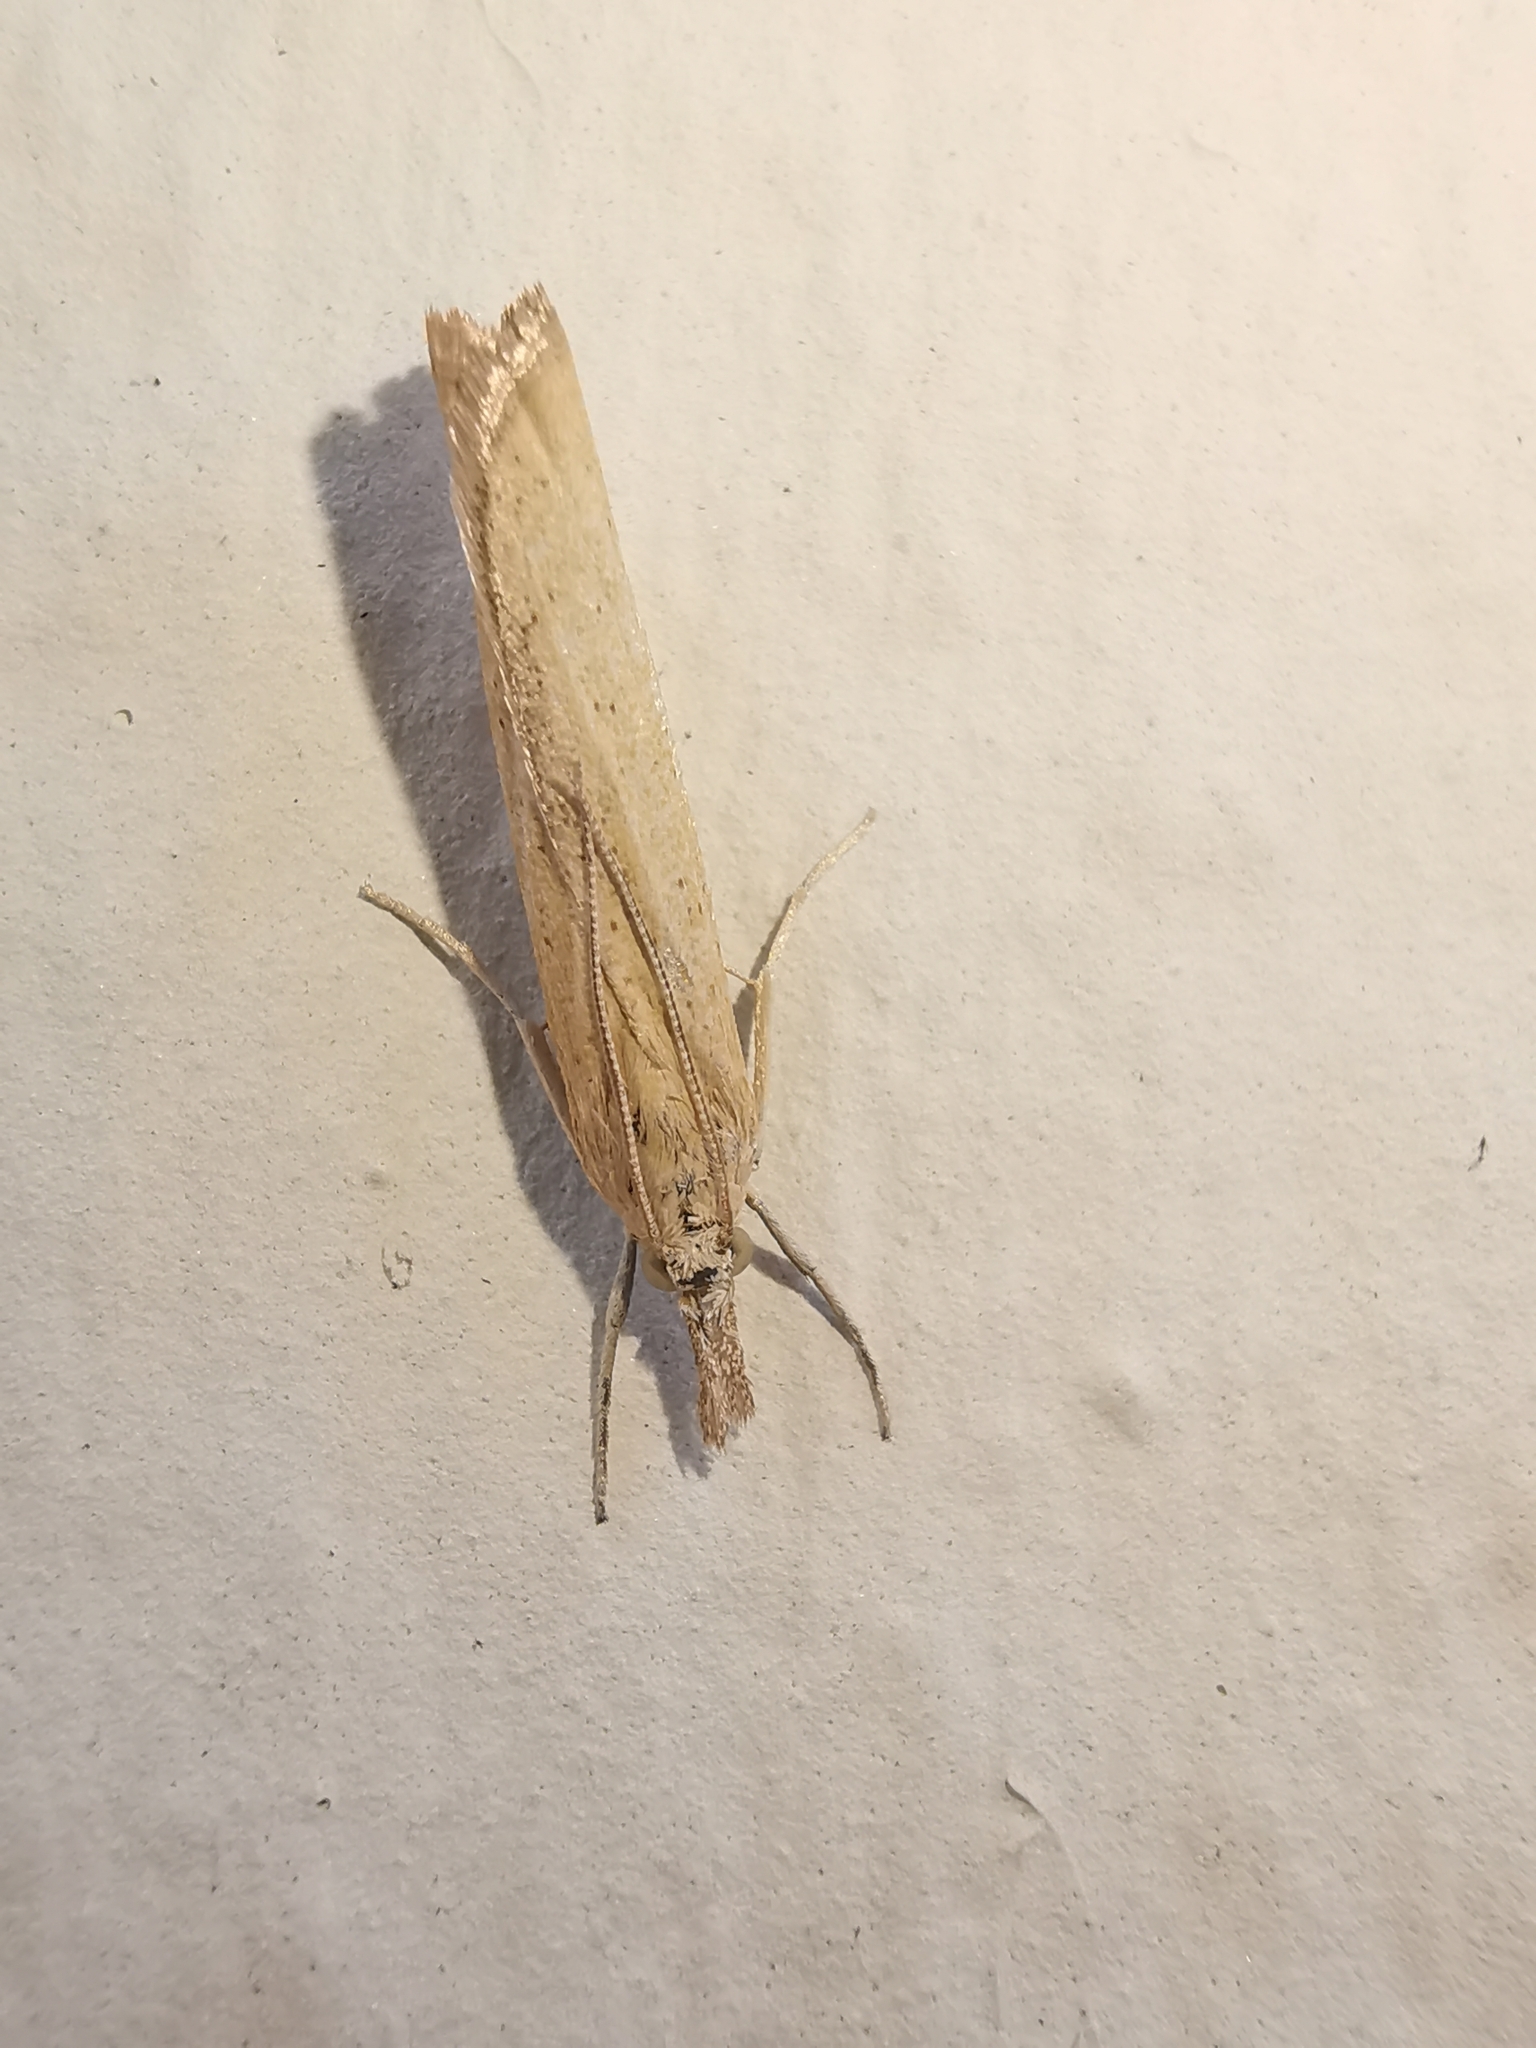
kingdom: Animalia
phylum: Arthropoda
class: Insecta
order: Lepidoptera
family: Crambidae
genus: Agriphila
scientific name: Agriphila straminella
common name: Straw grass-veneer
